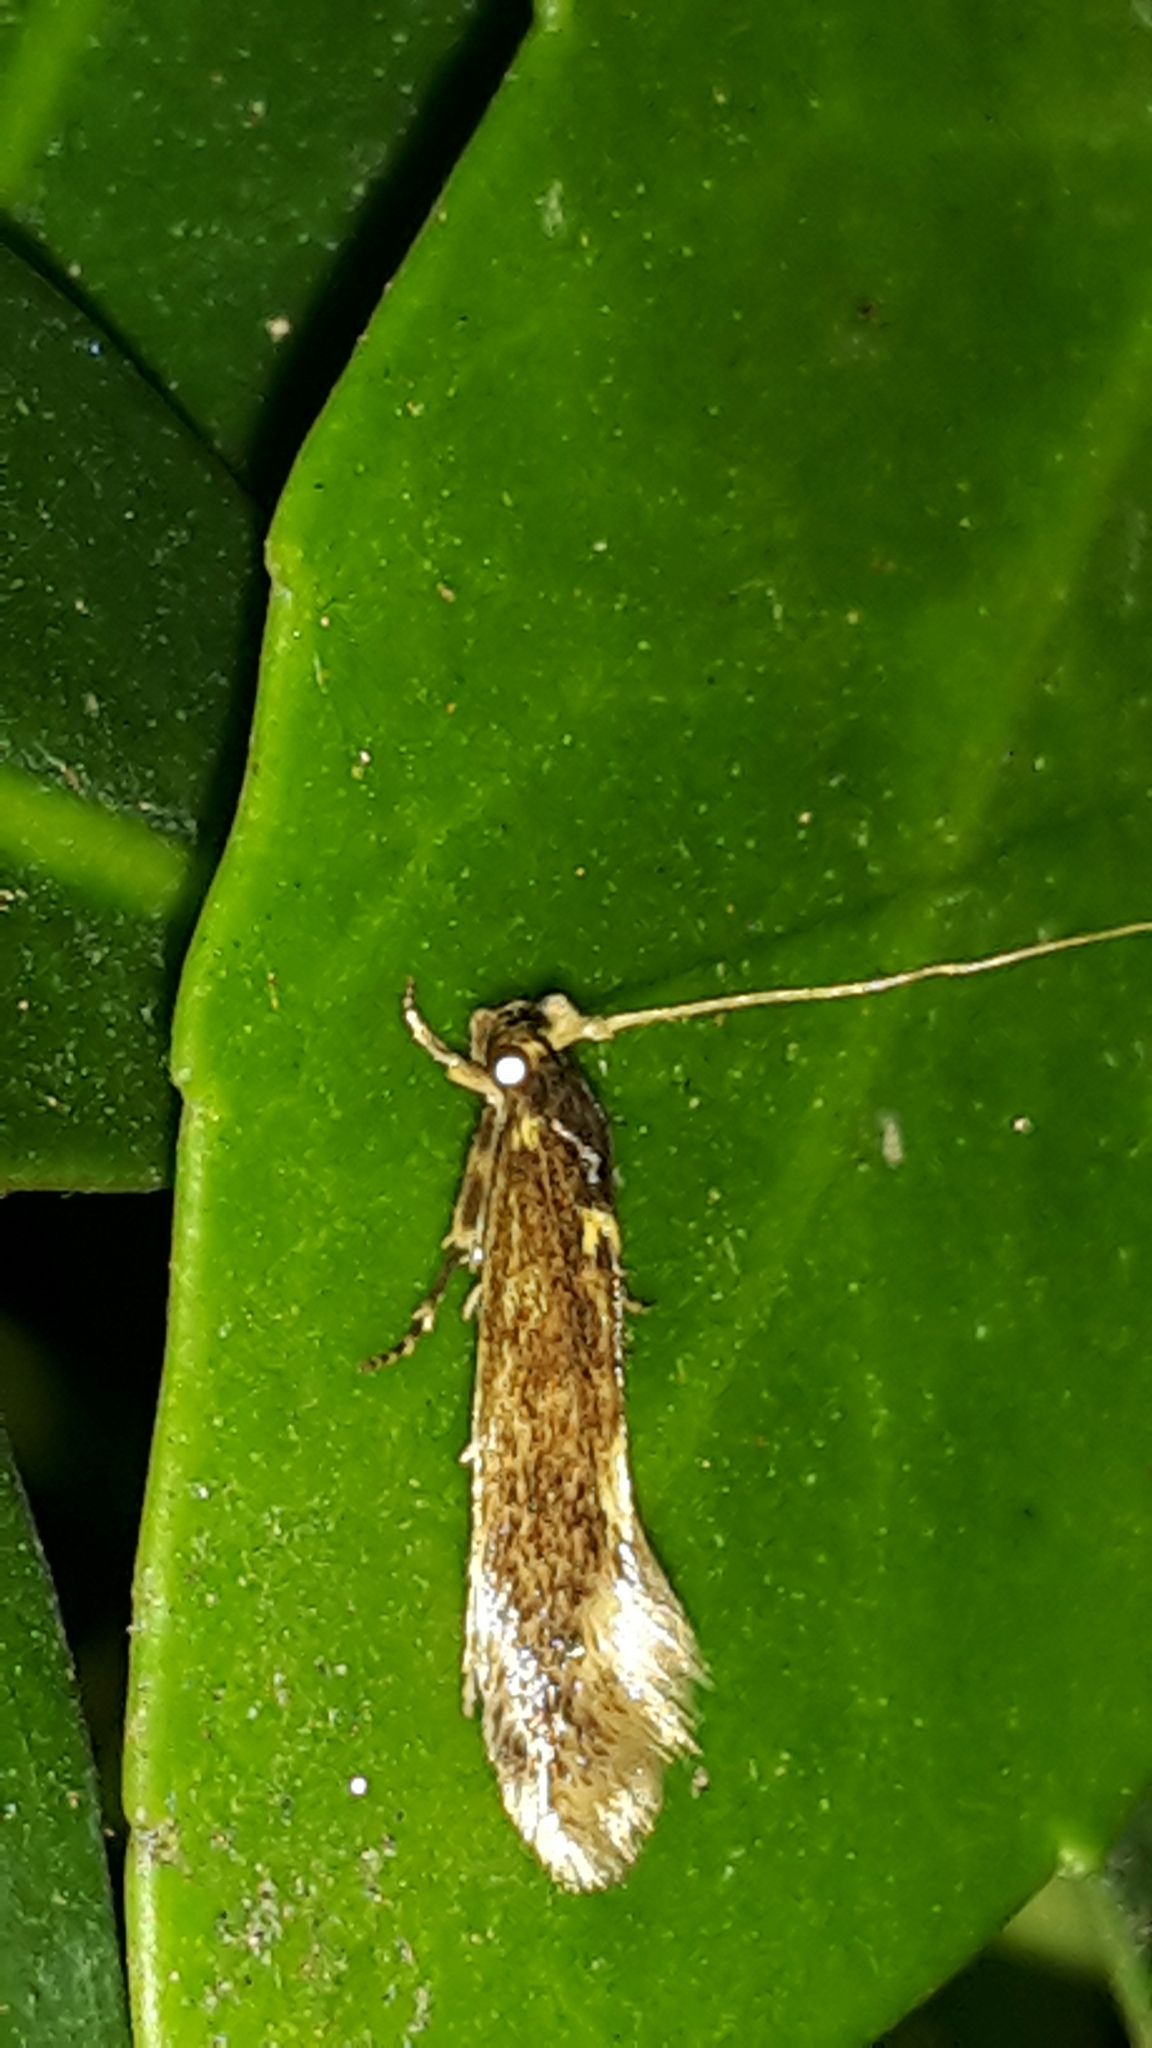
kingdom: Animalia
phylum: Arthropoda
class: Insecta
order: Lepidoptera
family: Tineidae
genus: Opogona
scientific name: Opogona omoscopa
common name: Moth
